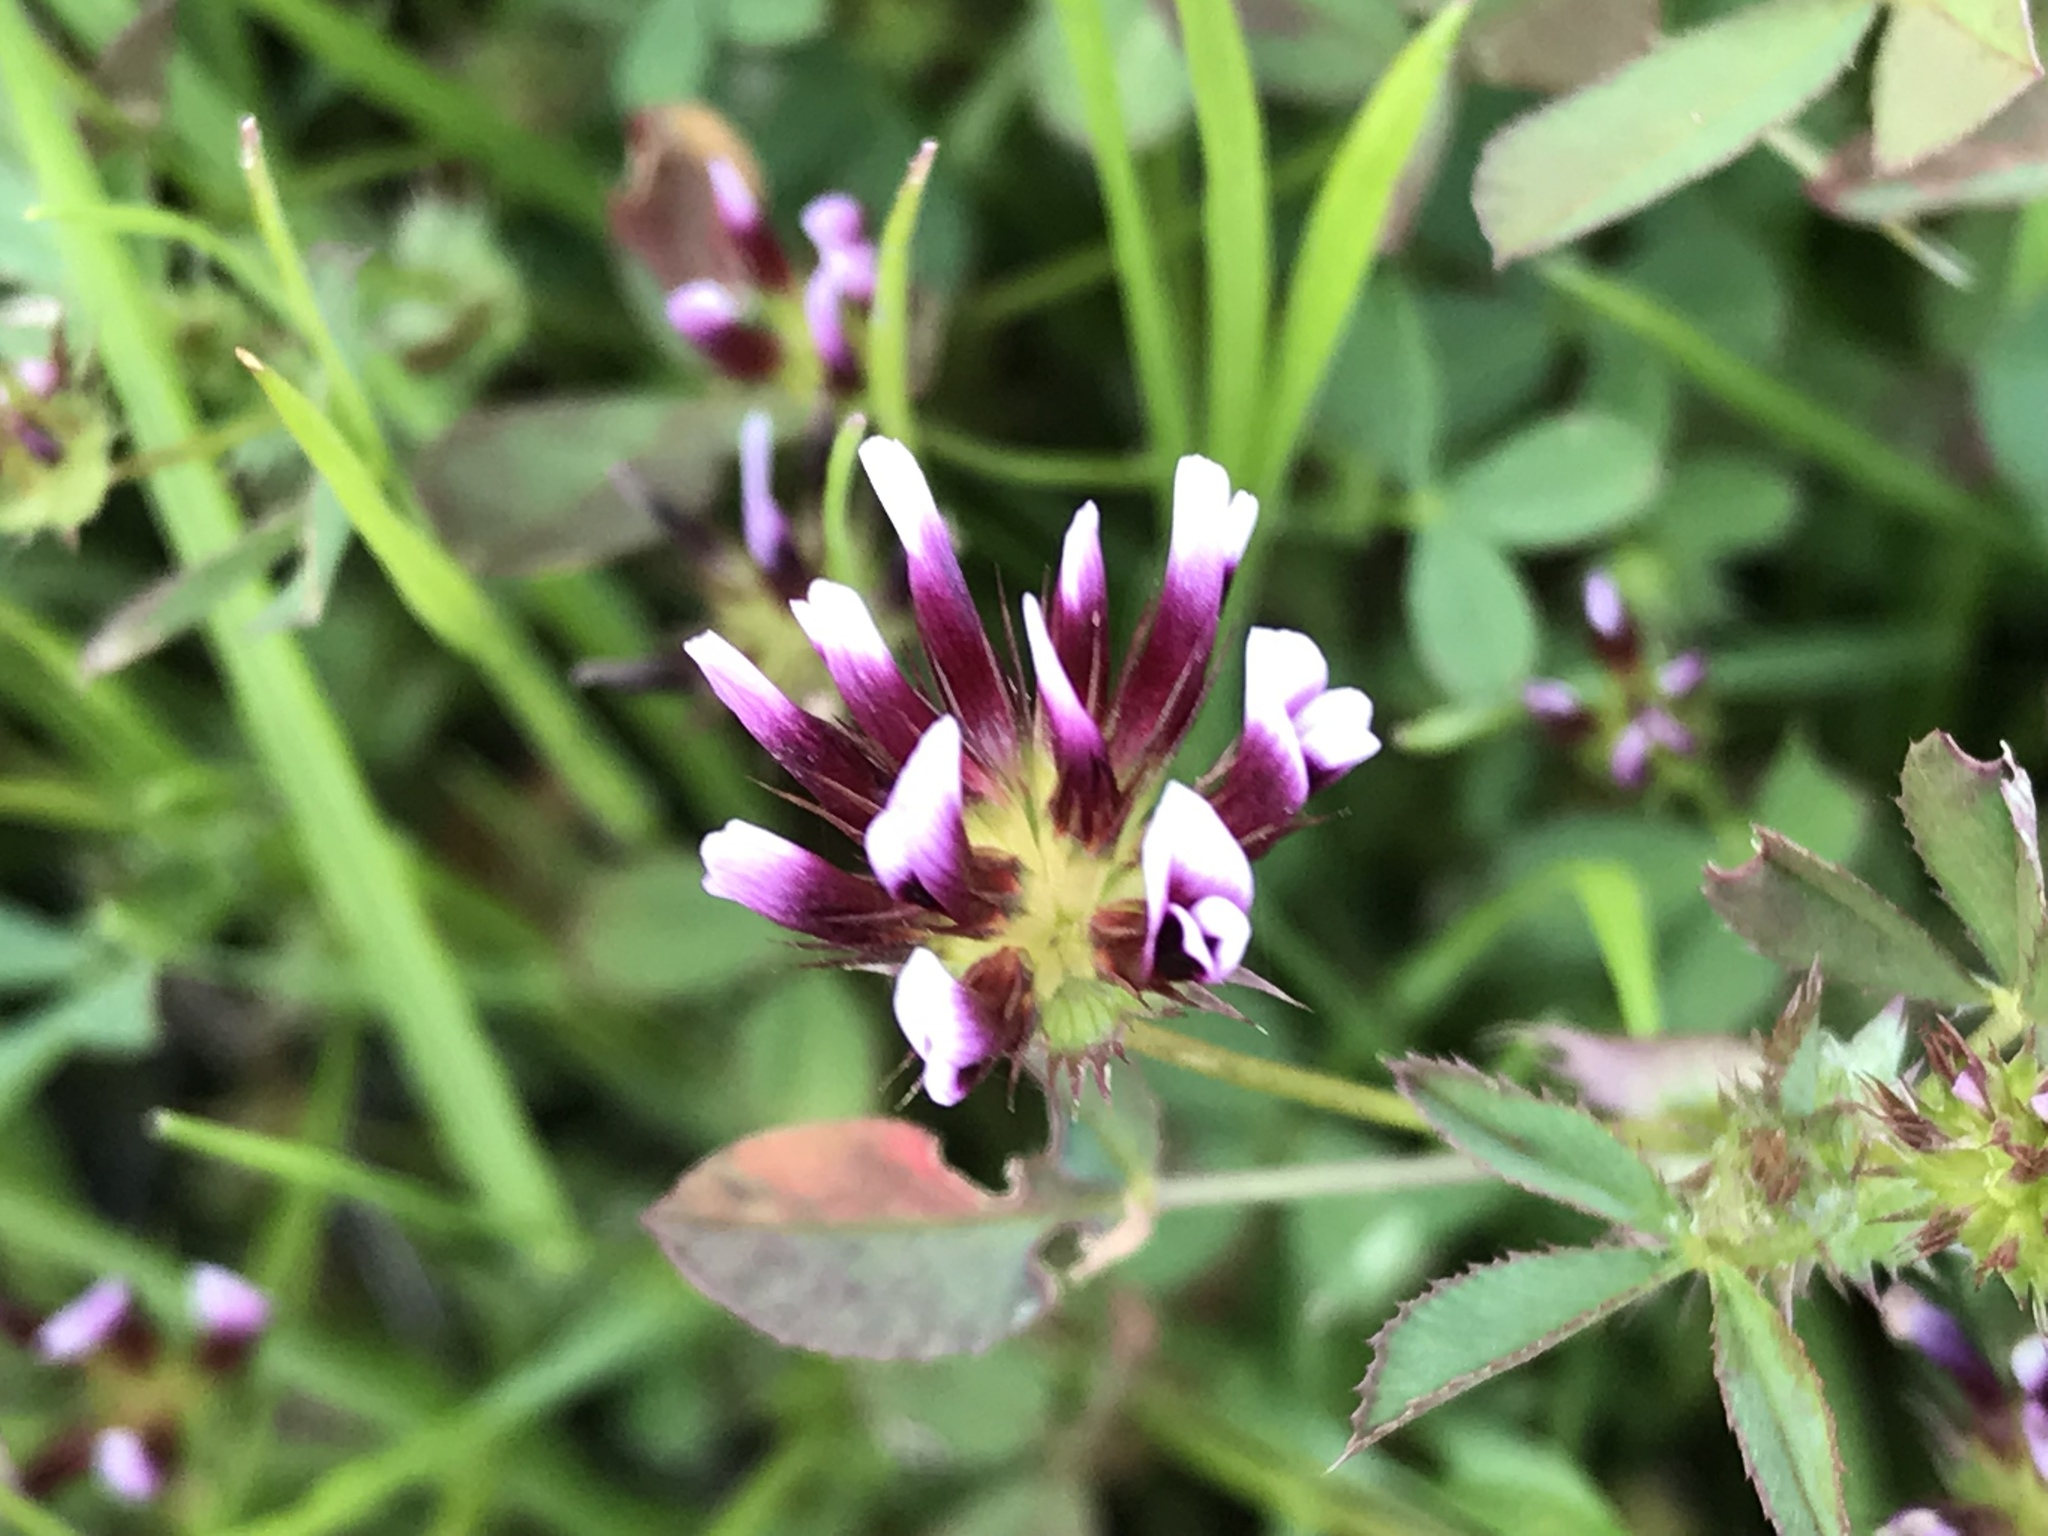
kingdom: Plantae
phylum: Tracheophyta
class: Magnoliopsida
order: Fabales
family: Fabaceae
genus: Trifolium
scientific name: Trifolium variegatum
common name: Whitetip clover
